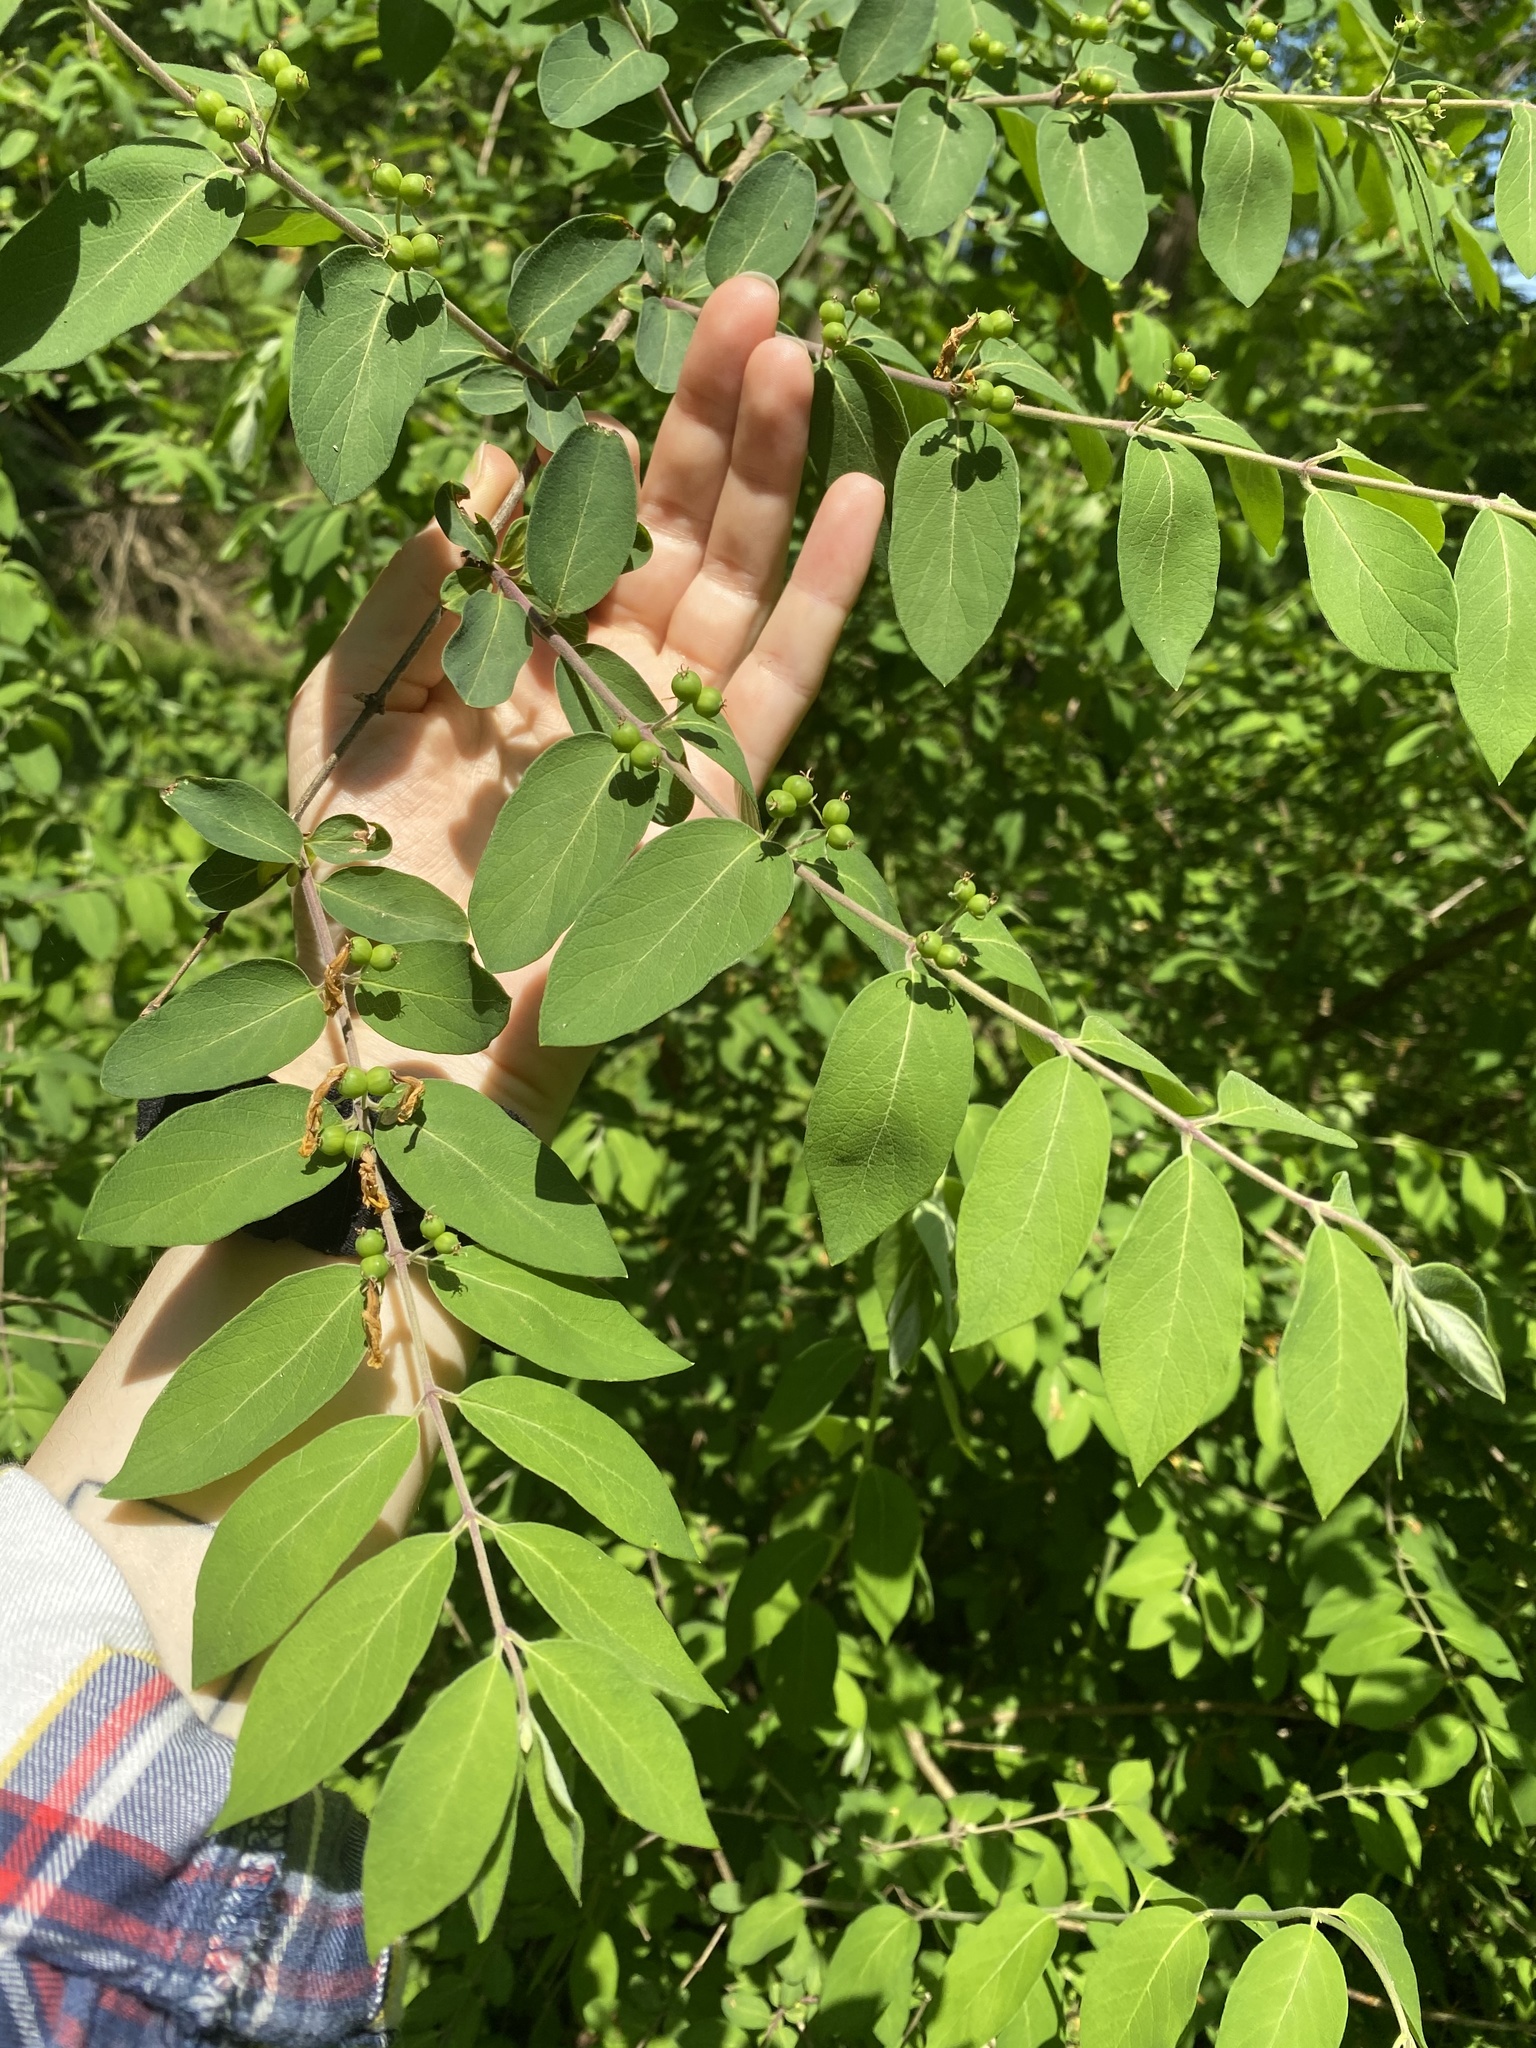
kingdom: Plantae
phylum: Tracheophyta
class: Magnoliopsida
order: Dipsacales
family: Caprifoliaceae
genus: Lonicera
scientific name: Lonicera morrowii
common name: Morrow's honeysuckle
